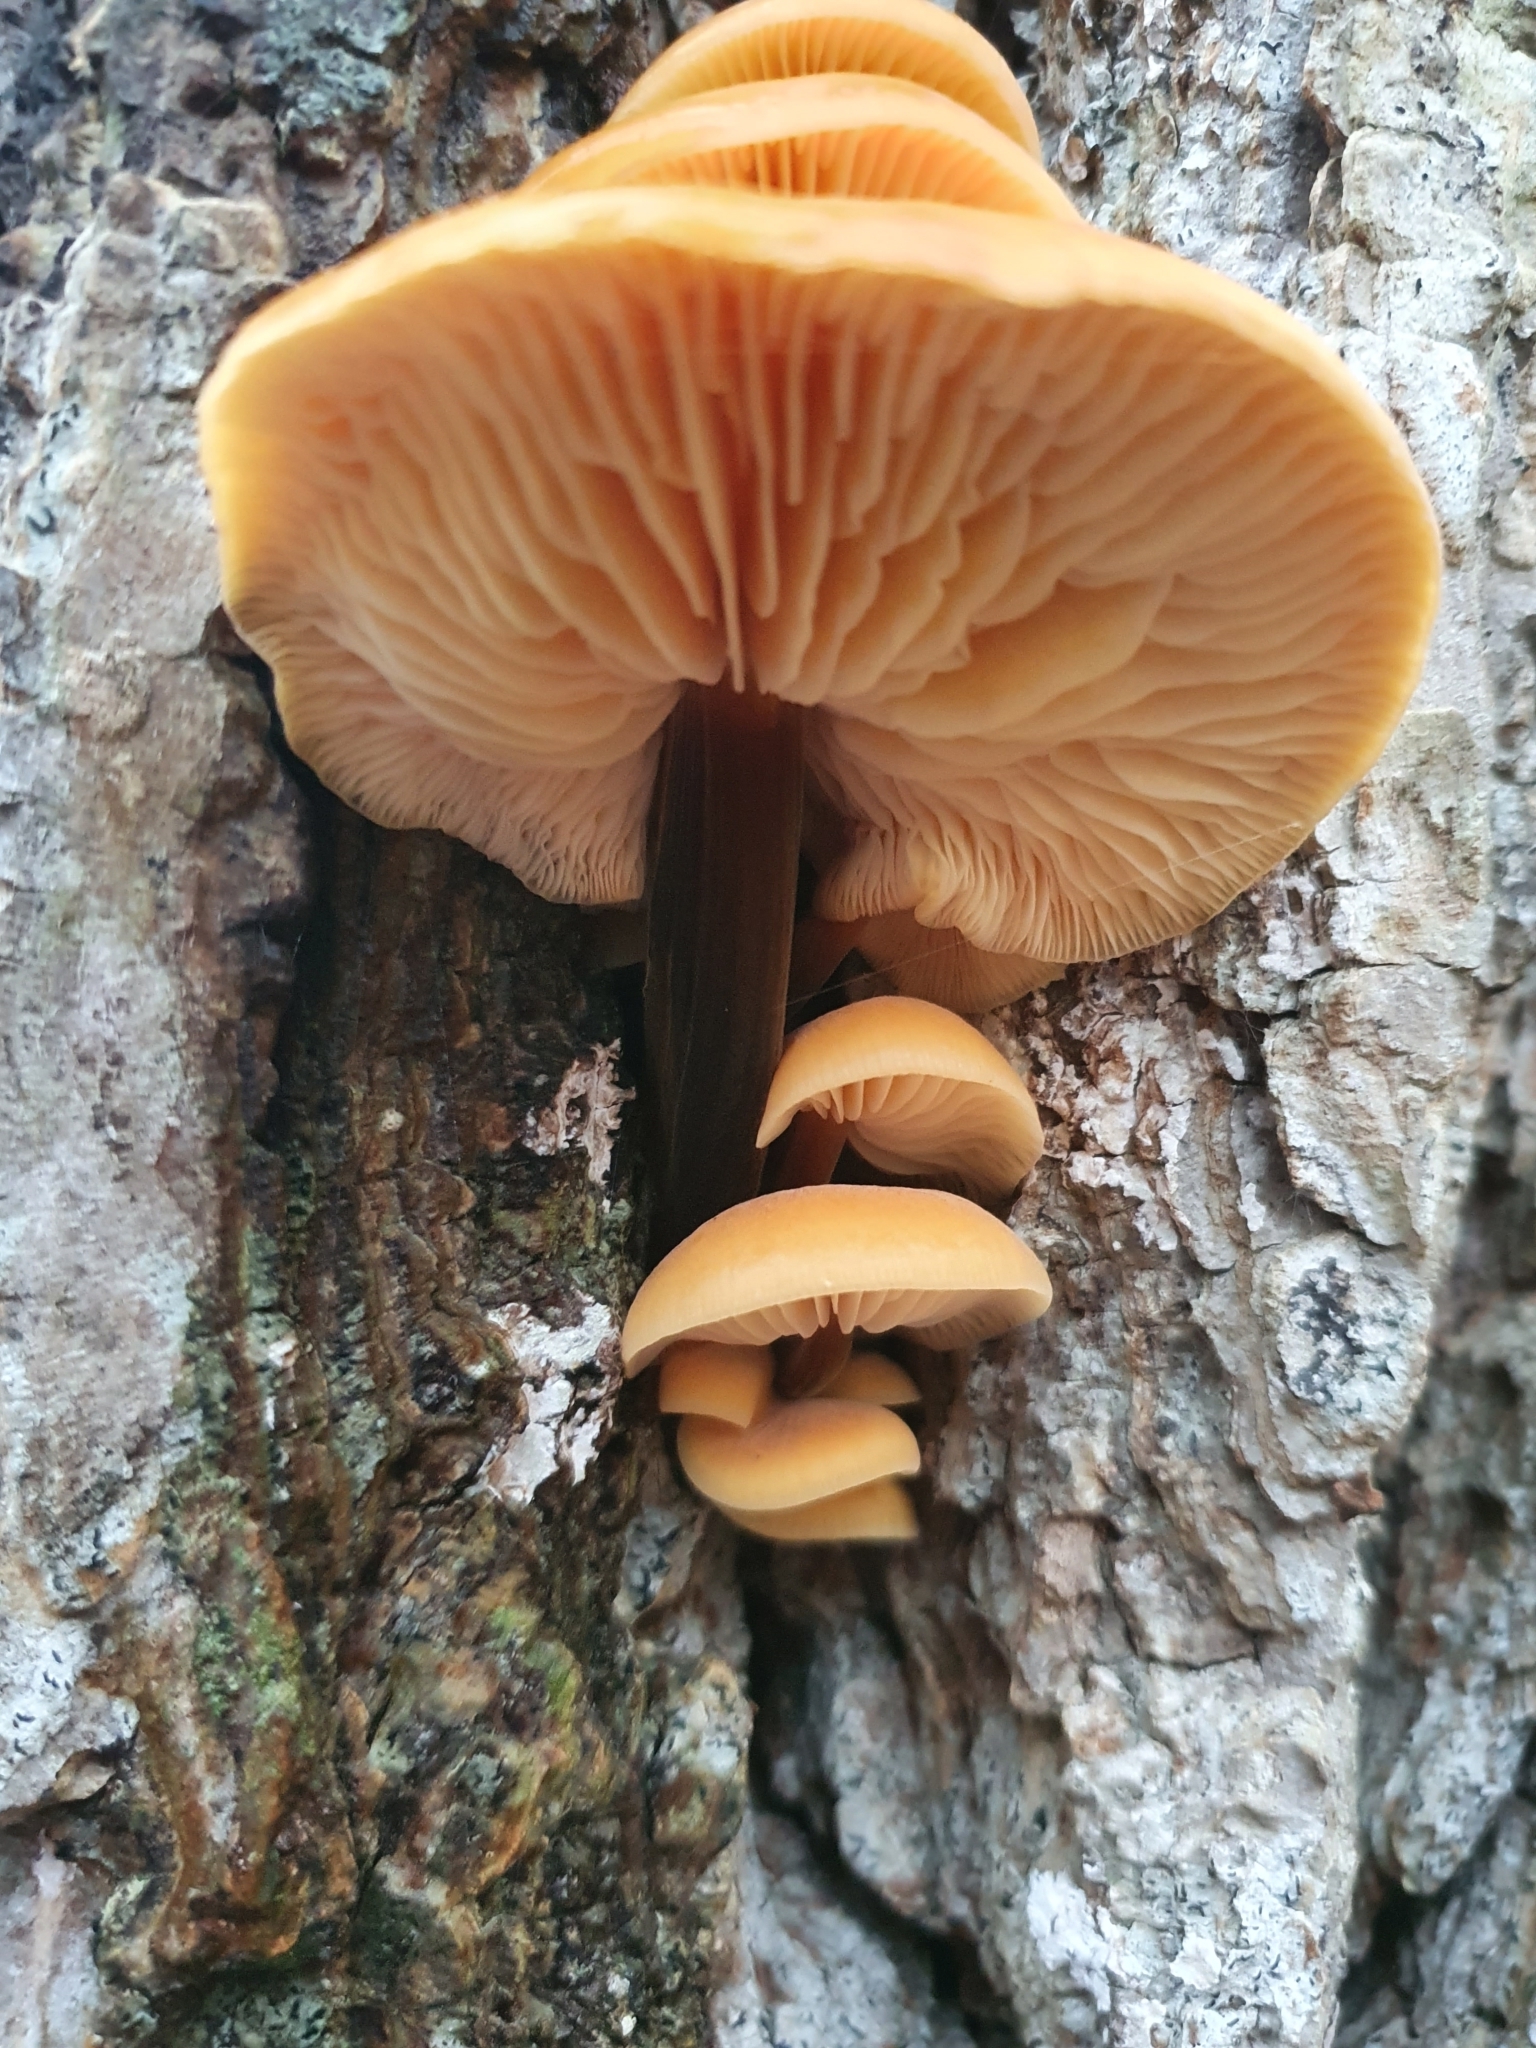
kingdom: Fungi
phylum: Basidiomycota
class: Agaricomycetes
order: Agaricales
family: Physalacriaceae
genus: Flammulina
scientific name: Flammulina
